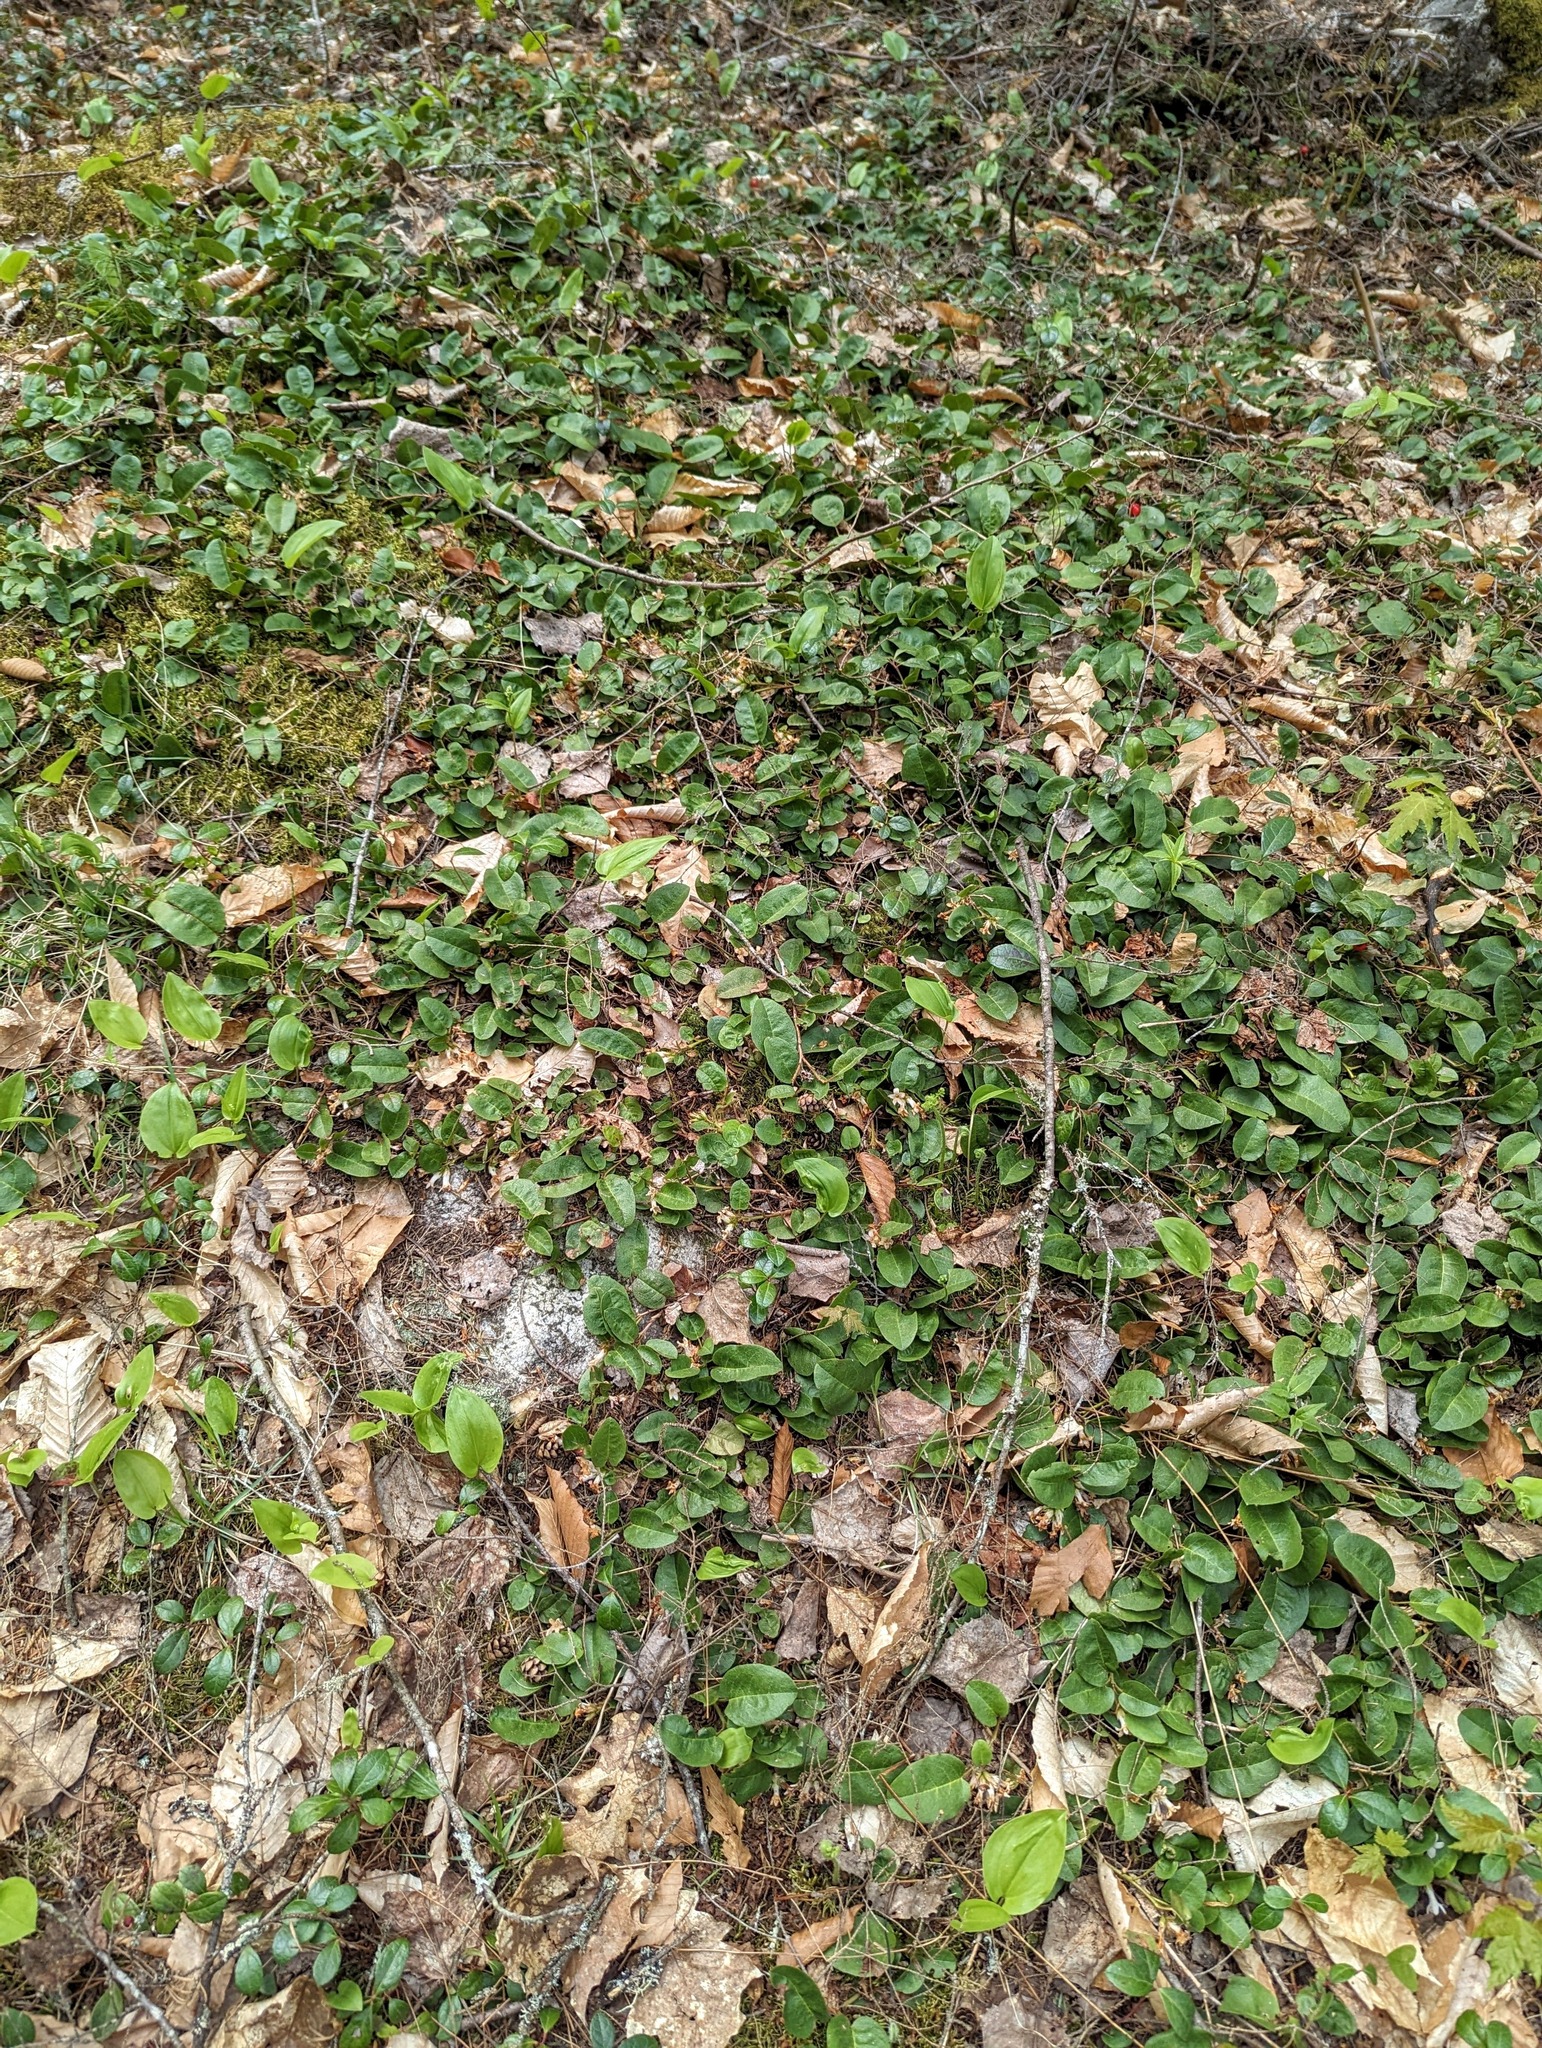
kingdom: Plantae
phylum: Tracheophyta
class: Magnoliopsida
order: Ericales
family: Ericaceae
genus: Epigaea
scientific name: Epigaea repens
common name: Gravelroot
